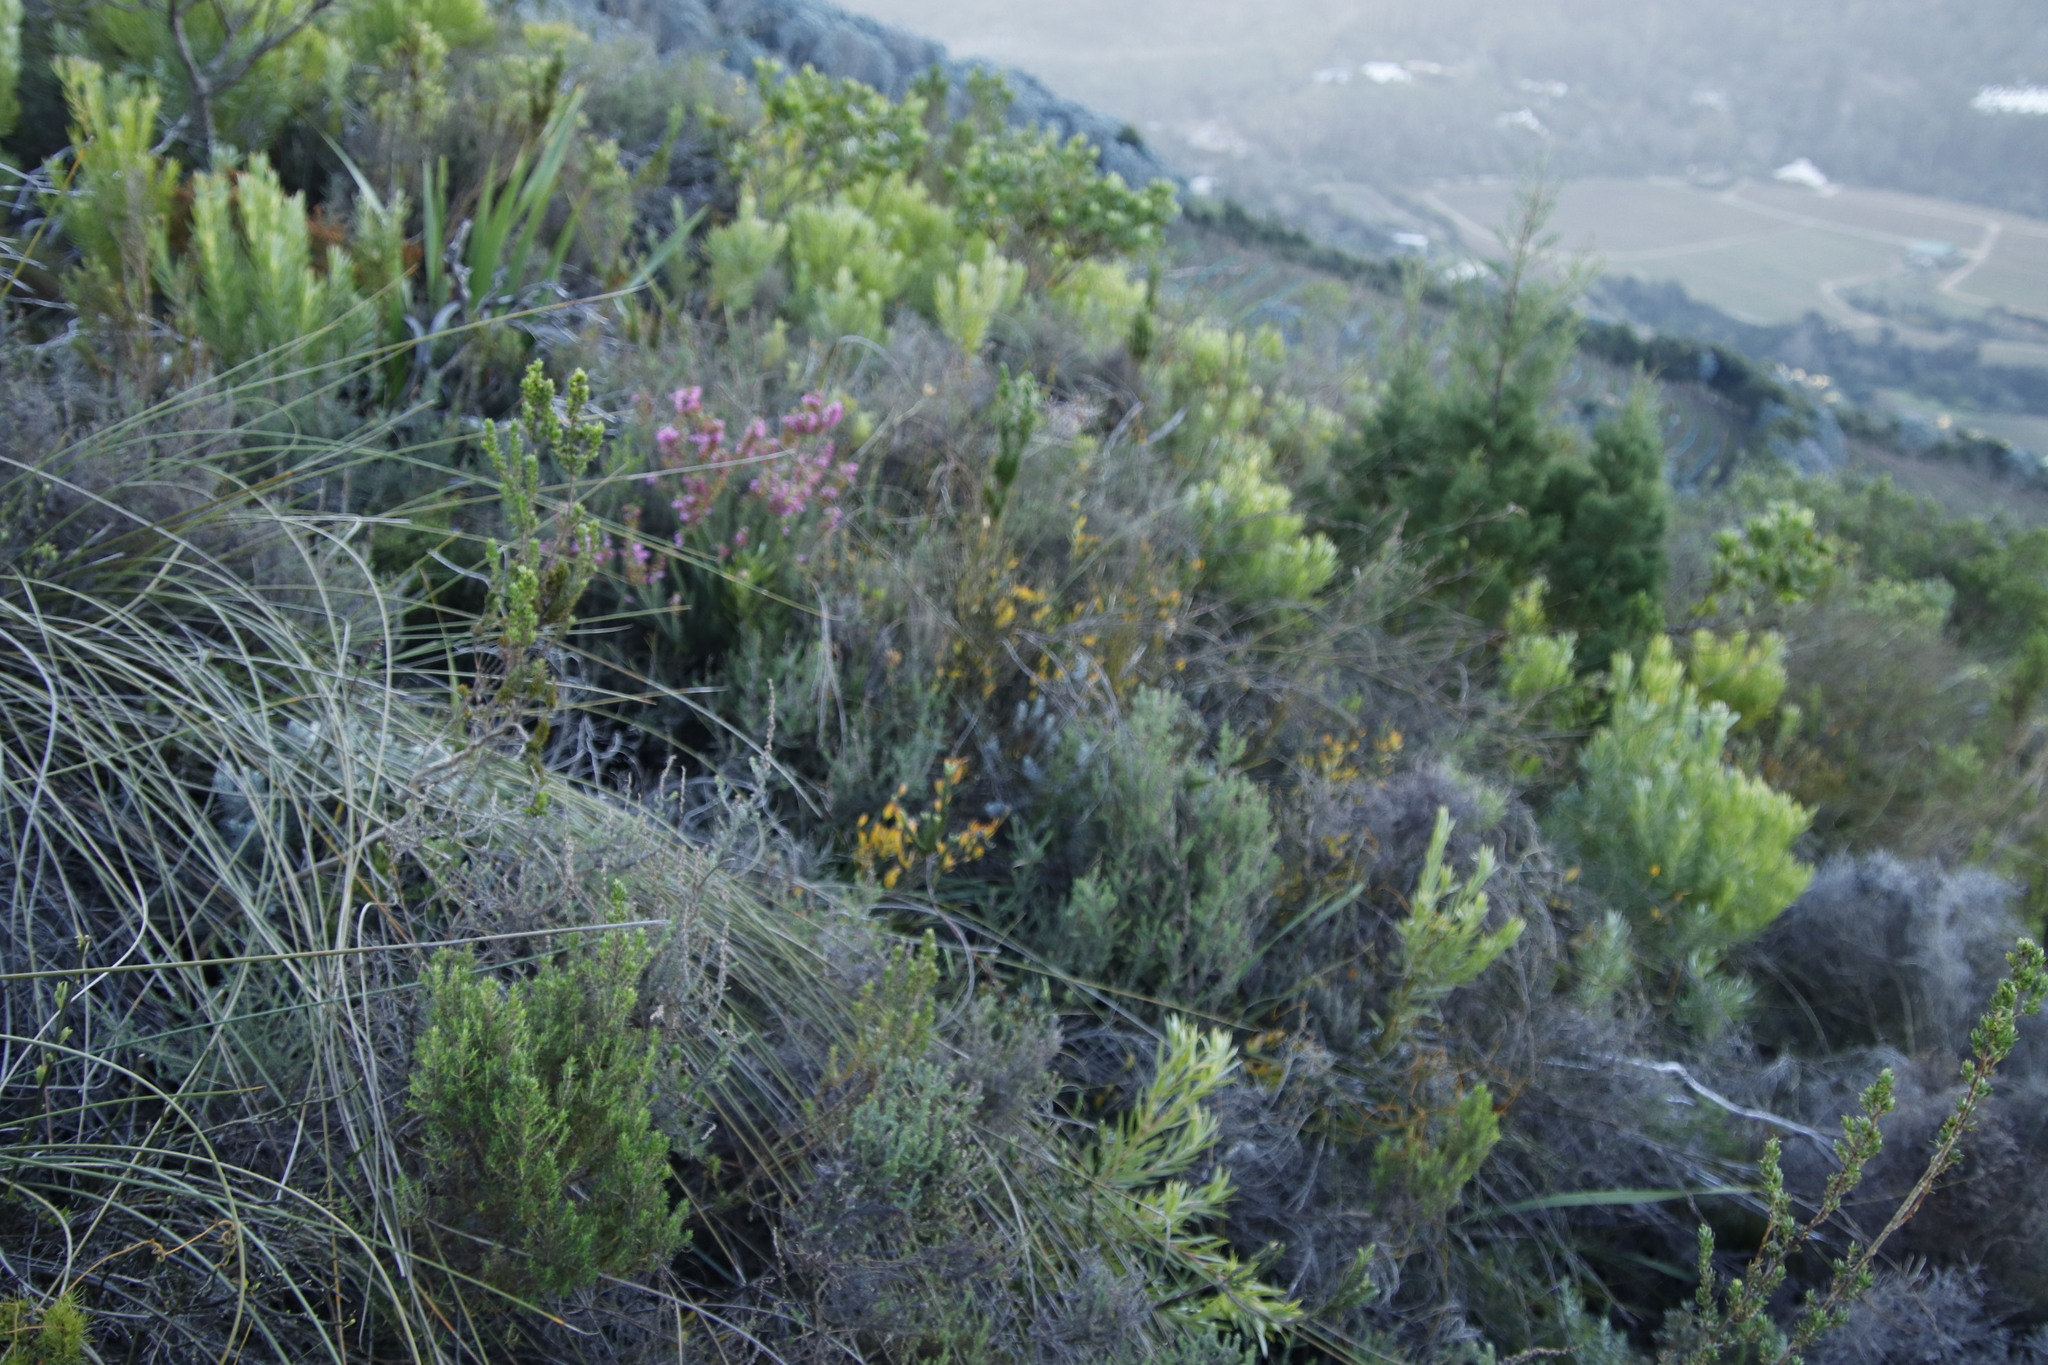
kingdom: Plantae
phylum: Tracheophyta
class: Magnoliopsida
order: Solanales
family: Montiniaceae
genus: Montinia
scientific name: Montinia caryophyllacea
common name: Wild clove-bush
